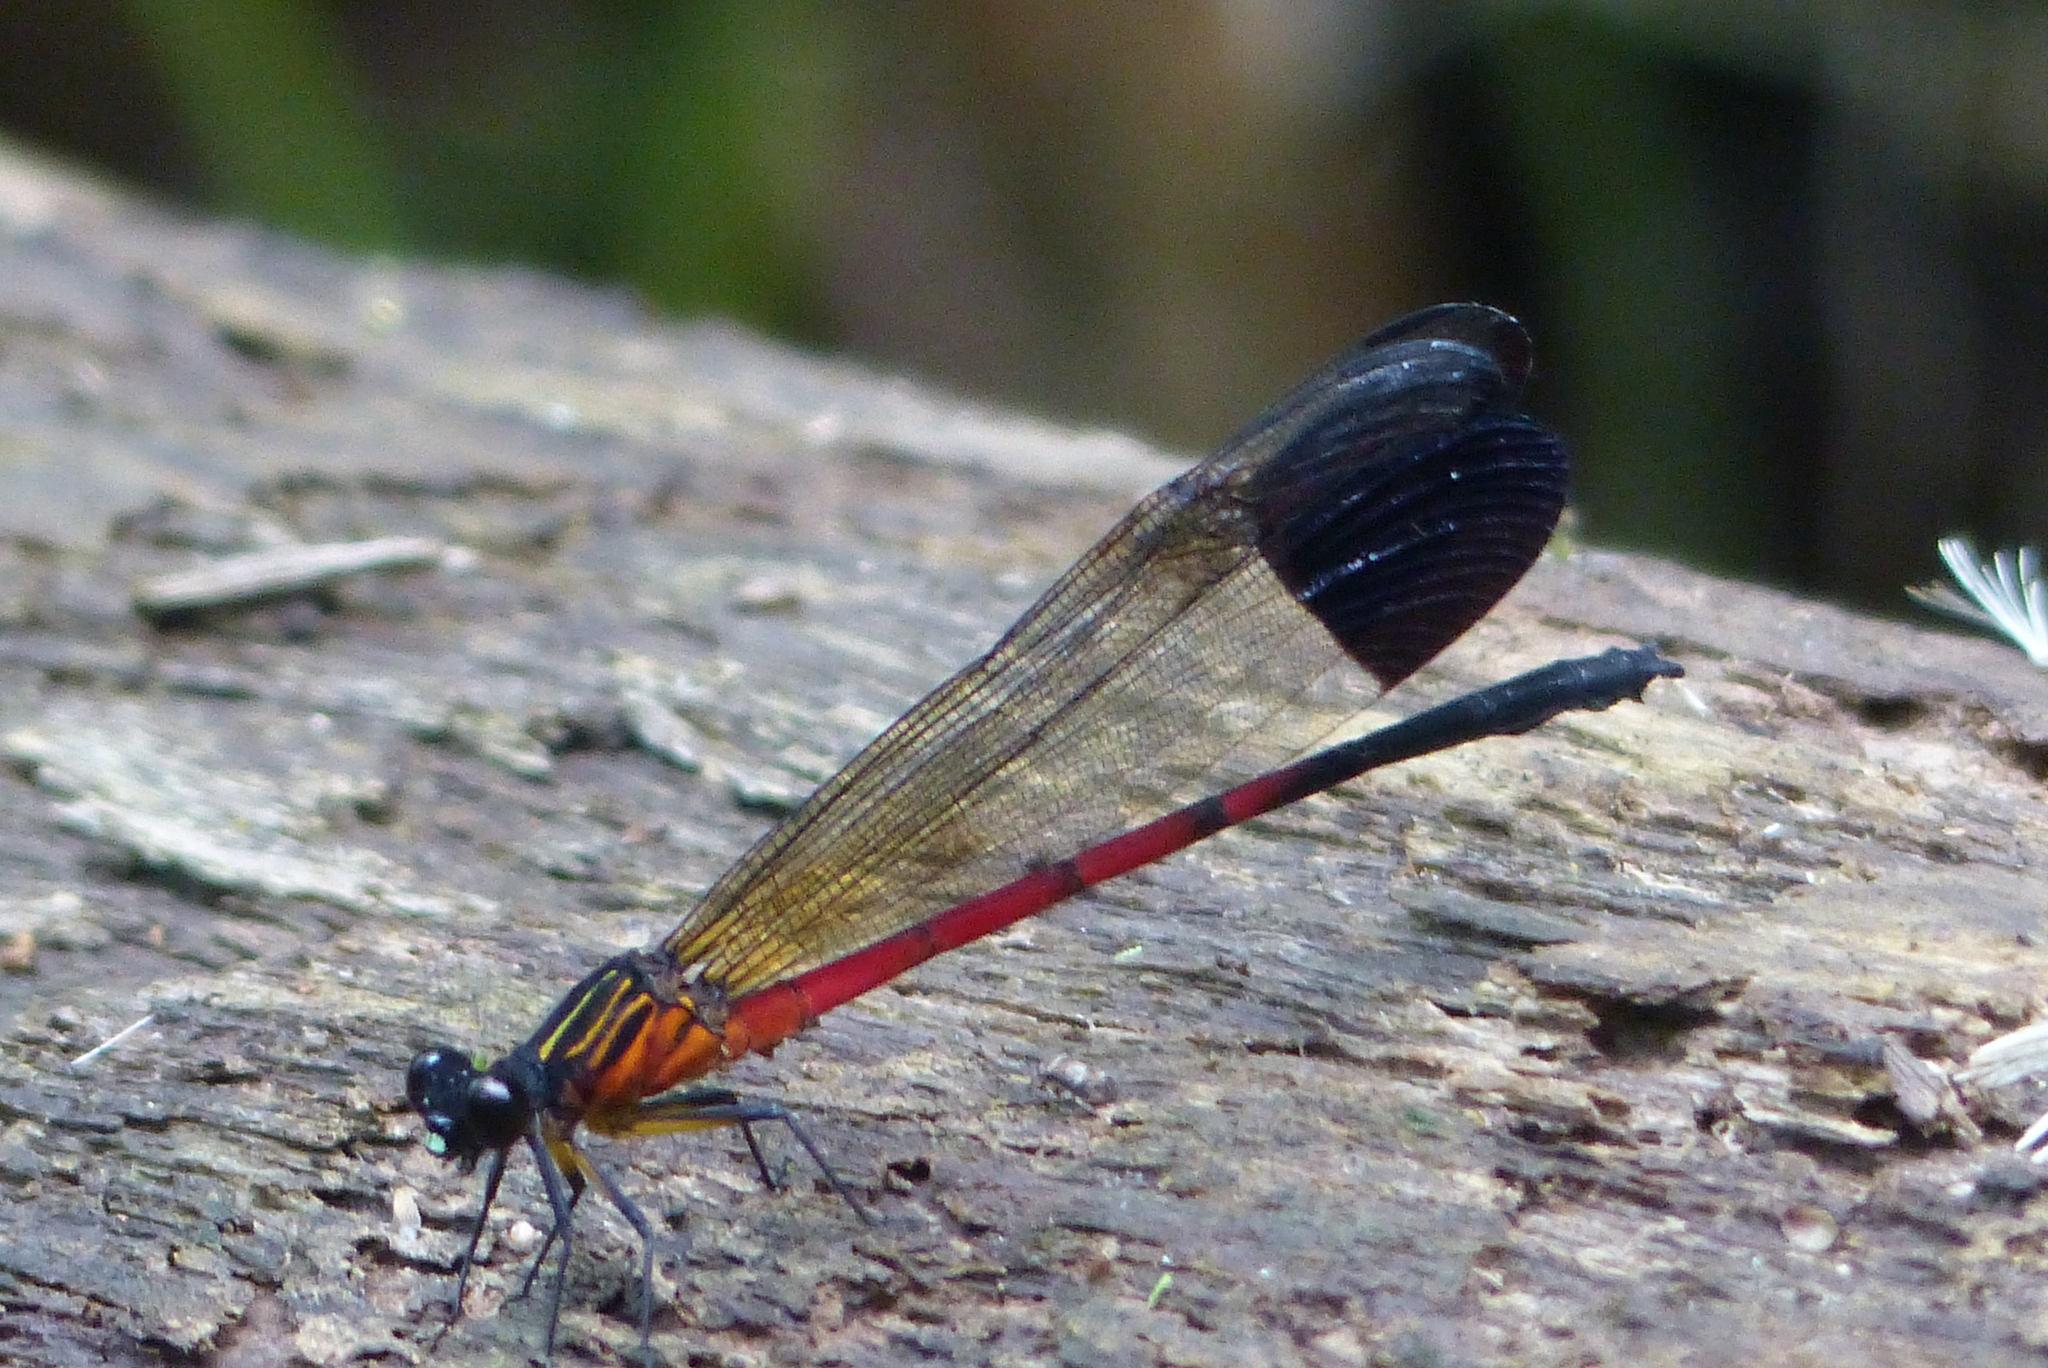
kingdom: Animalia
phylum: Arthropoda
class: Insecta
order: Odonata
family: Euphaeidae
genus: Euphaea
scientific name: Euphaea dispar
